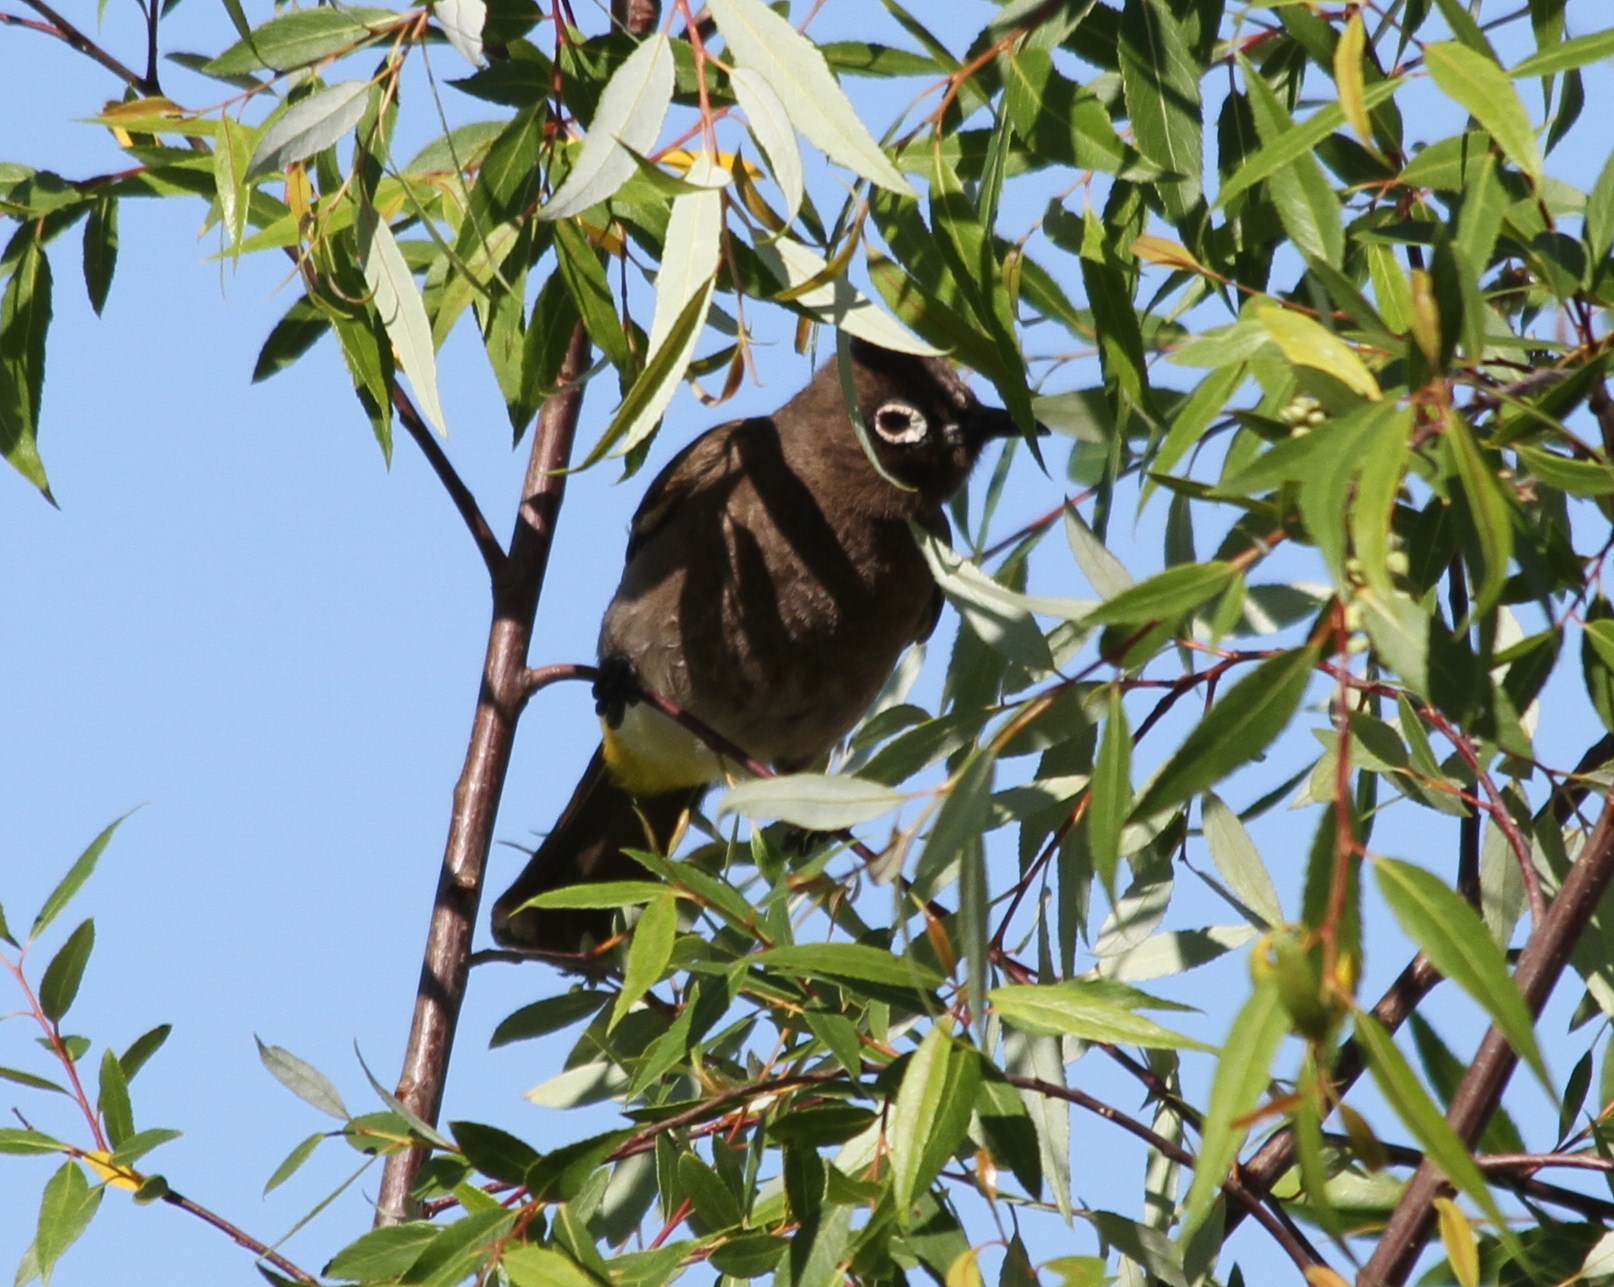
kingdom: Animalia
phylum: Chordata
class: Aves
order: Passeriformes
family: Pycnonotidae
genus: Pycnonotus
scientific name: Pycnonotus capensis
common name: Cape bulbul
